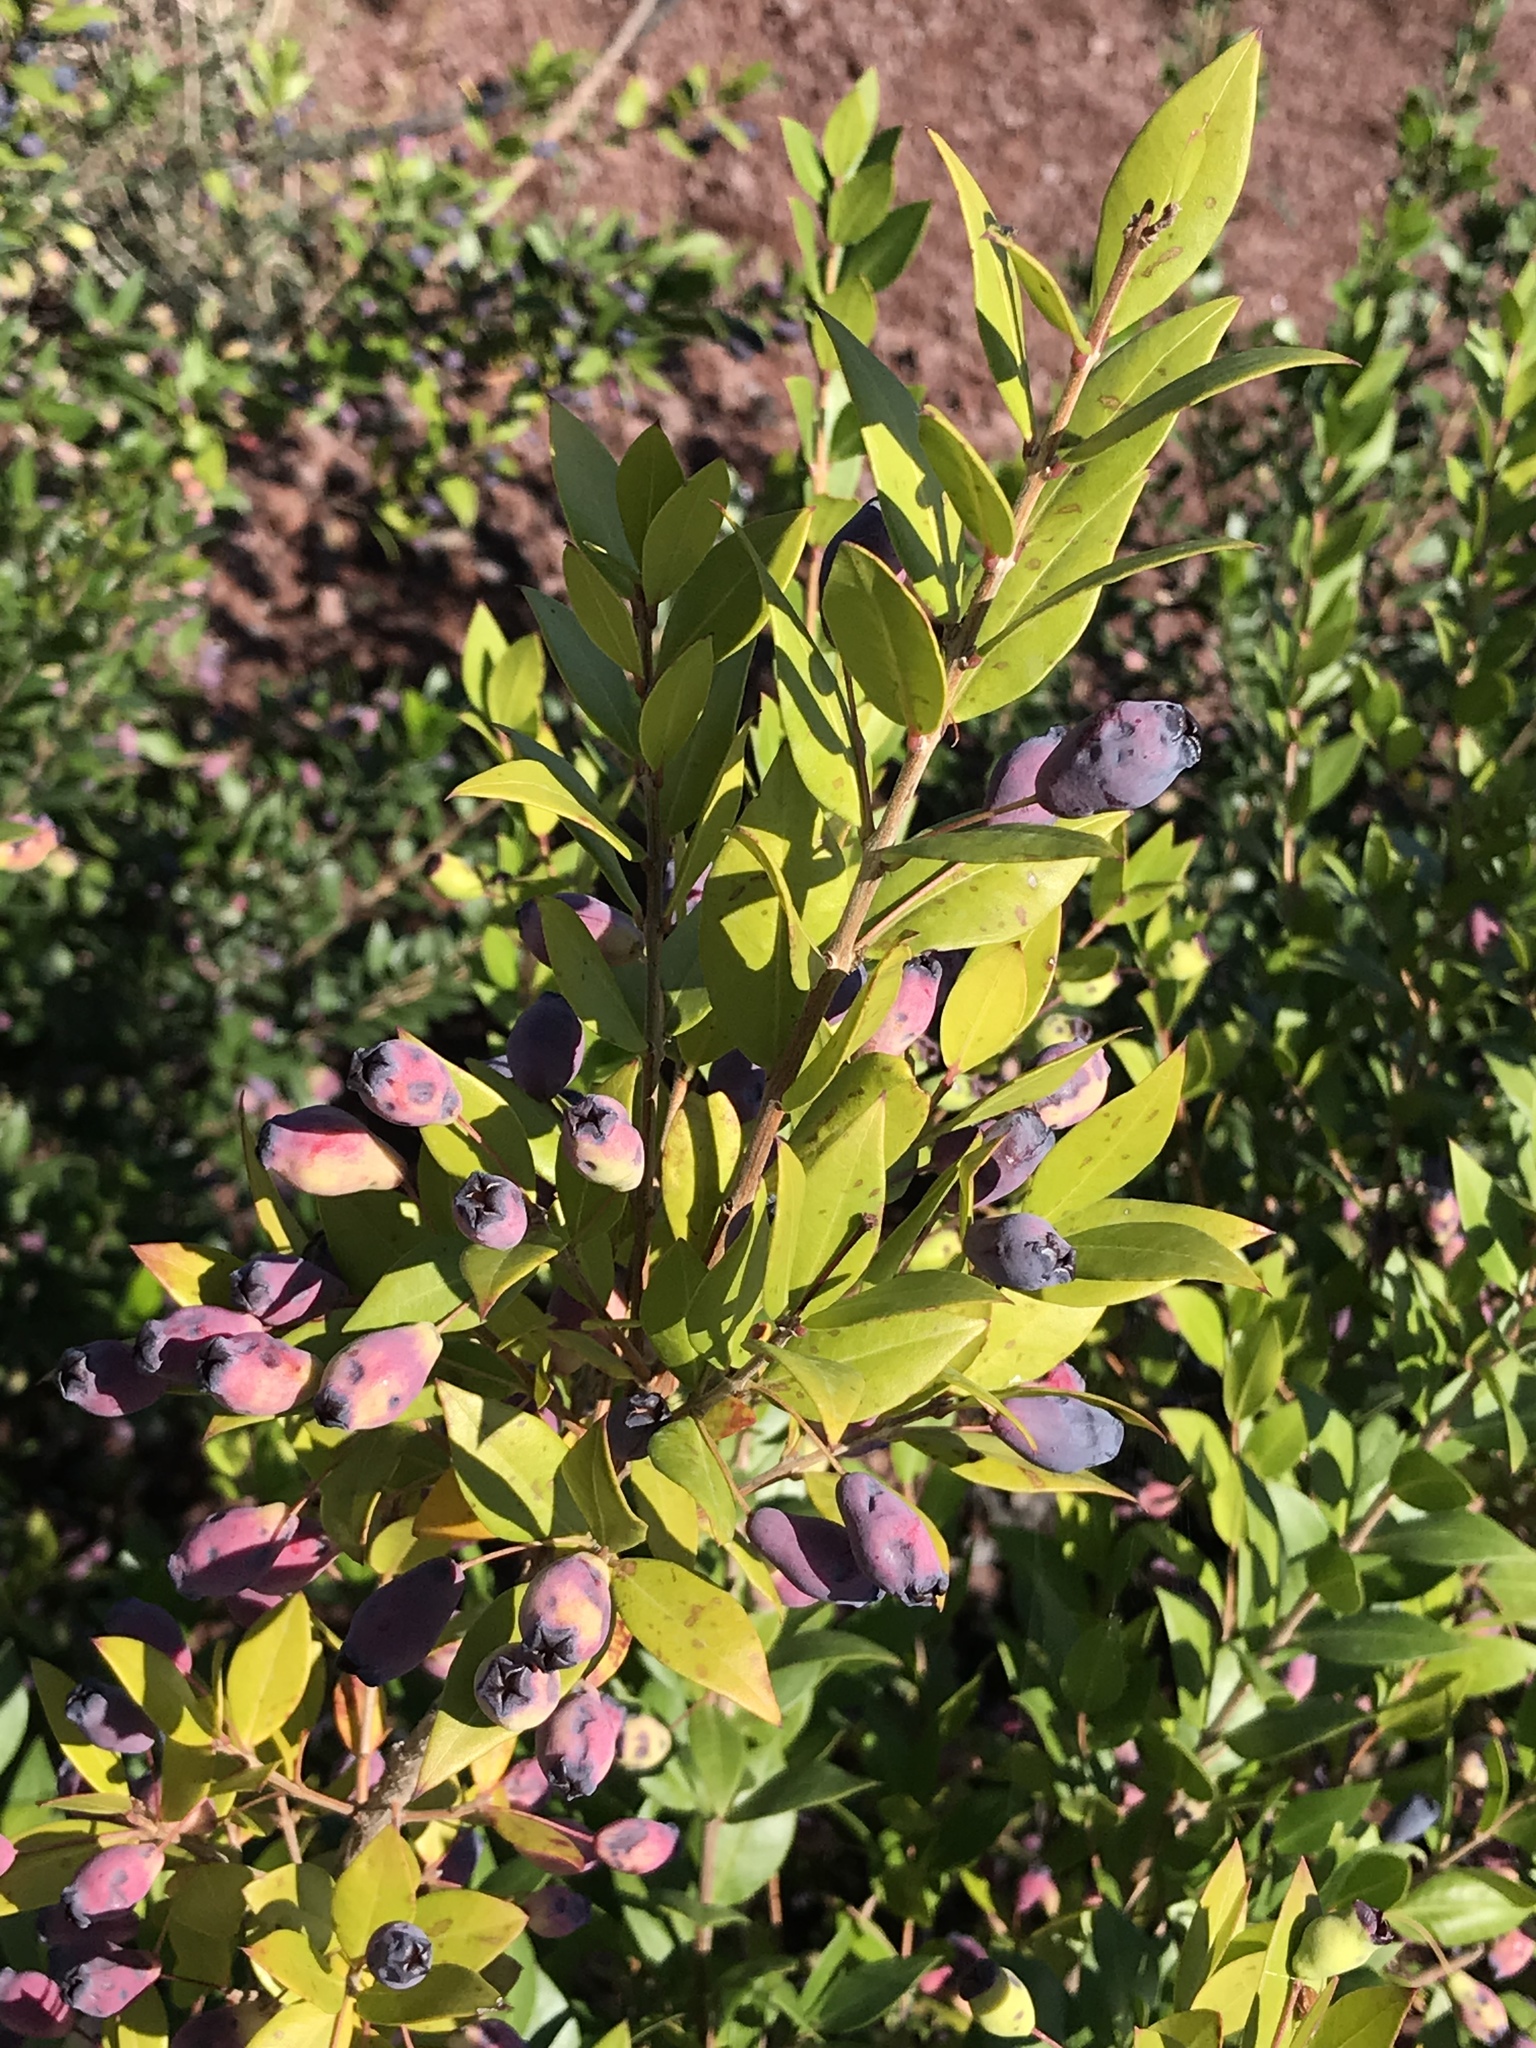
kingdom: Plantae
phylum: Tracheophyta
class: Magnoliopsida
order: Myrtales
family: Myrtaceae
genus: Myrtus
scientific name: Myrtus communis
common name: Myrtle
